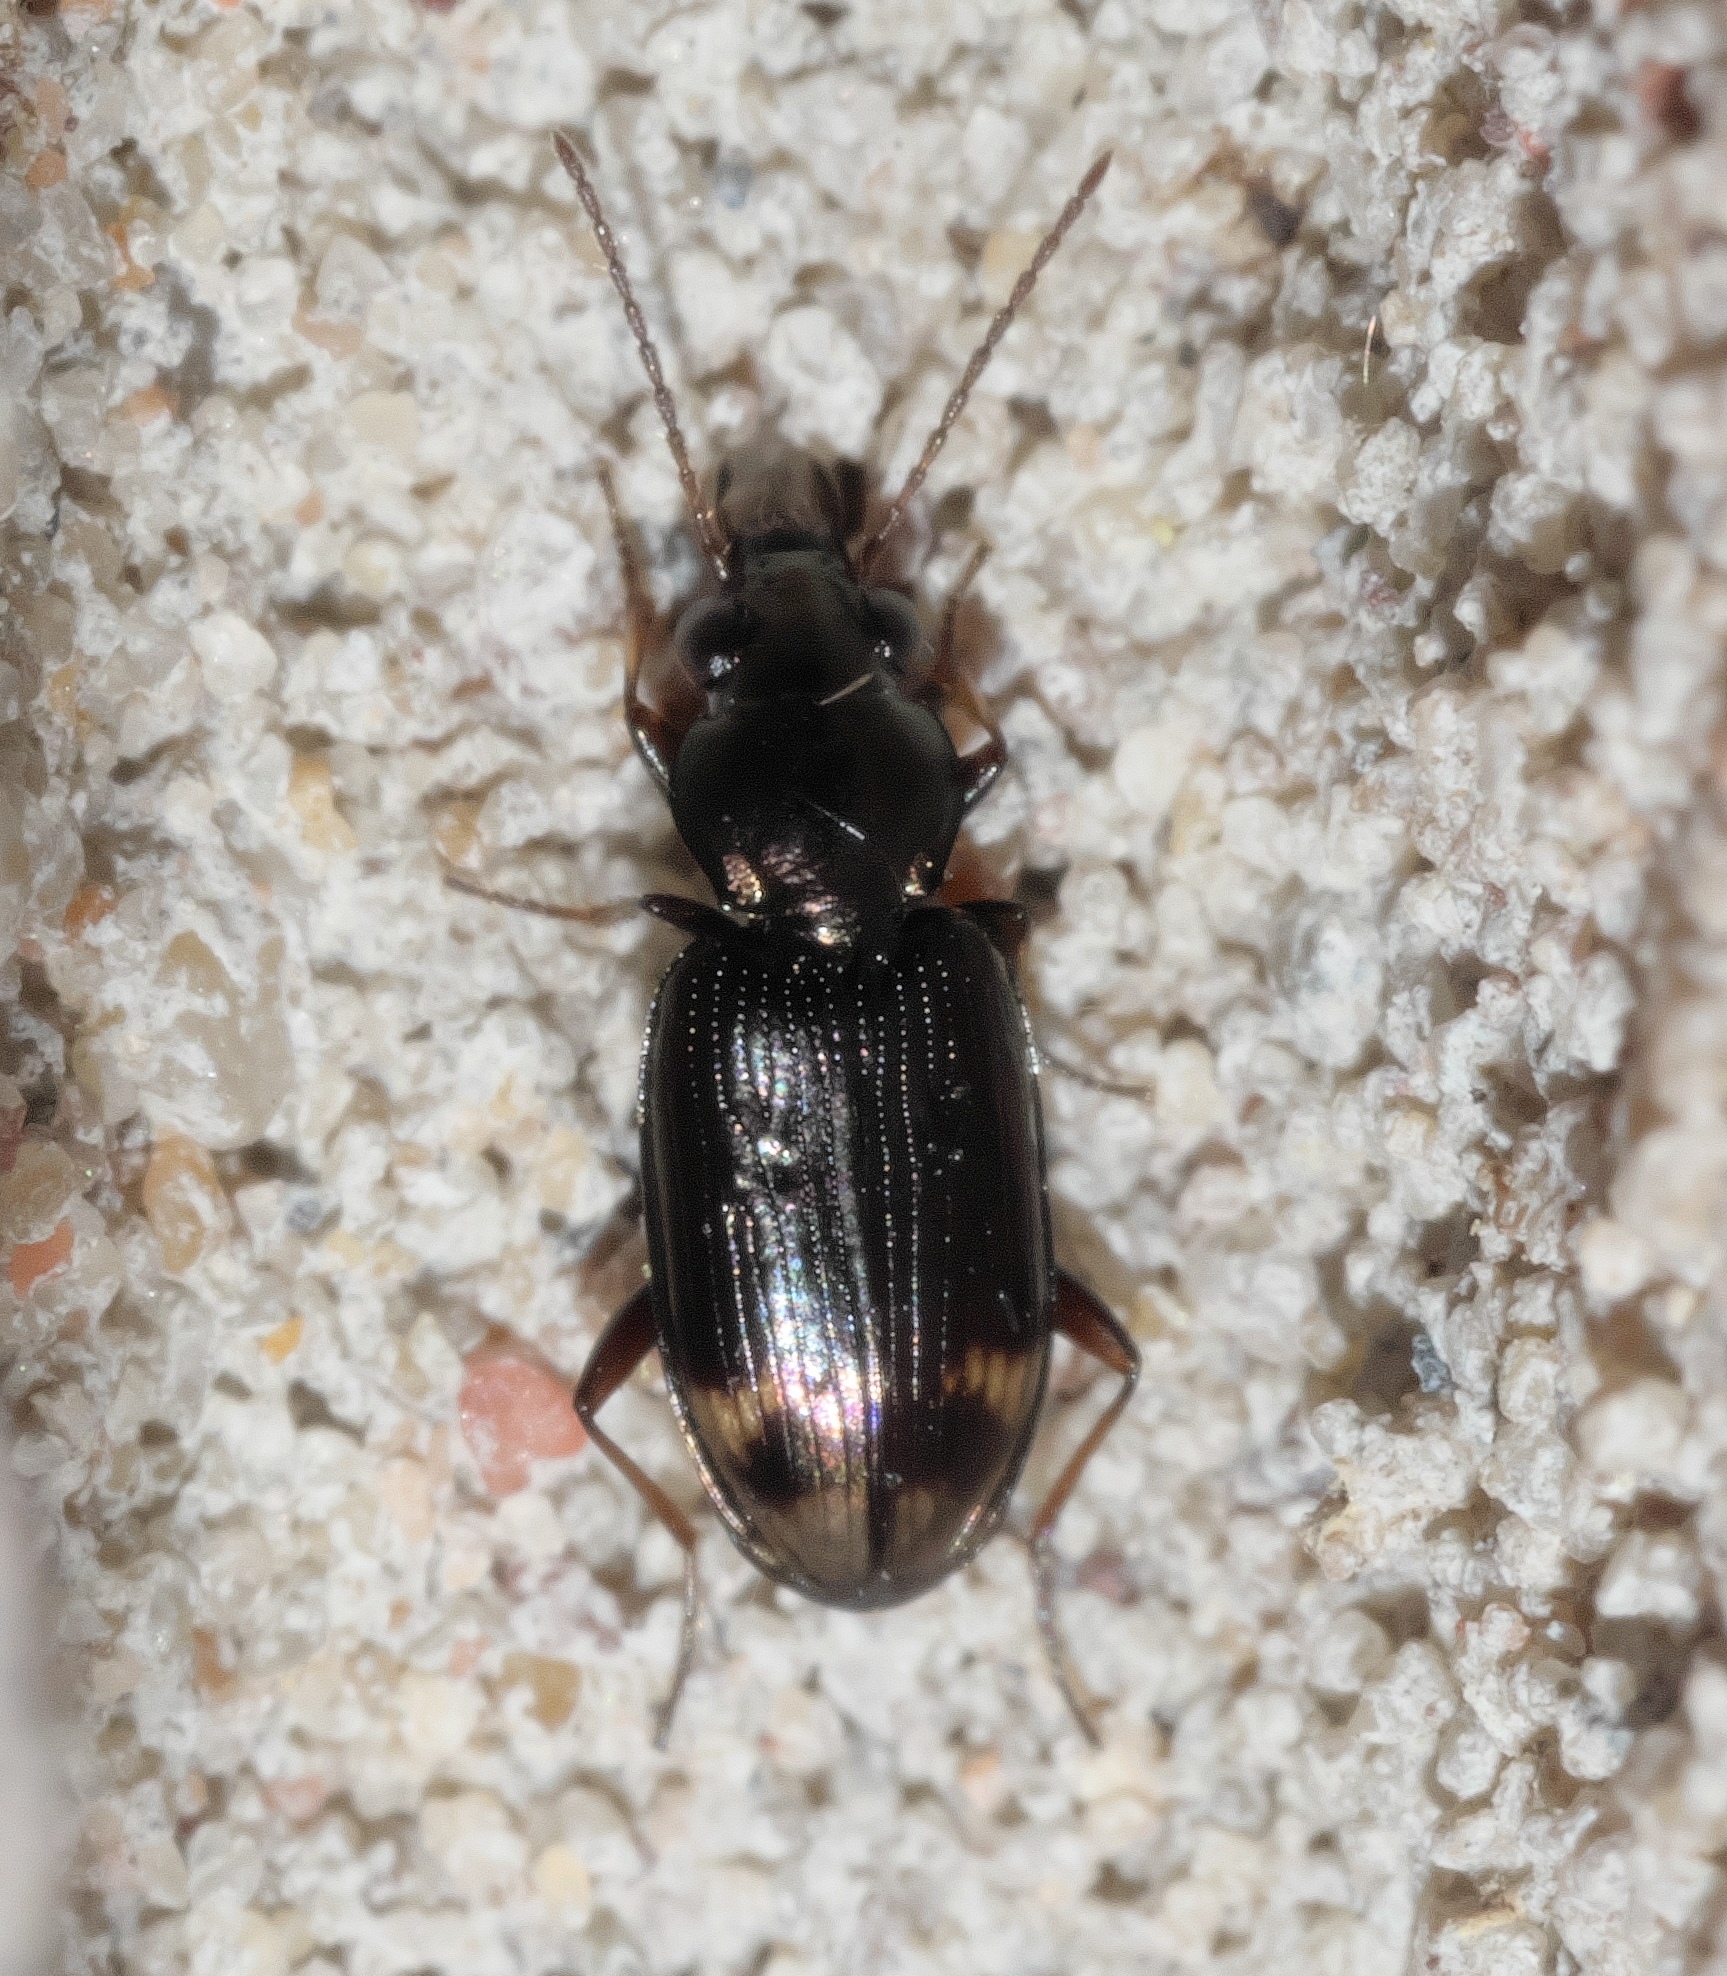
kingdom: Animalia
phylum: Arthropoda
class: Insecta
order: Coleoptera
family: Carabidae
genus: Bembidion
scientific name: Bembidion rapidum
